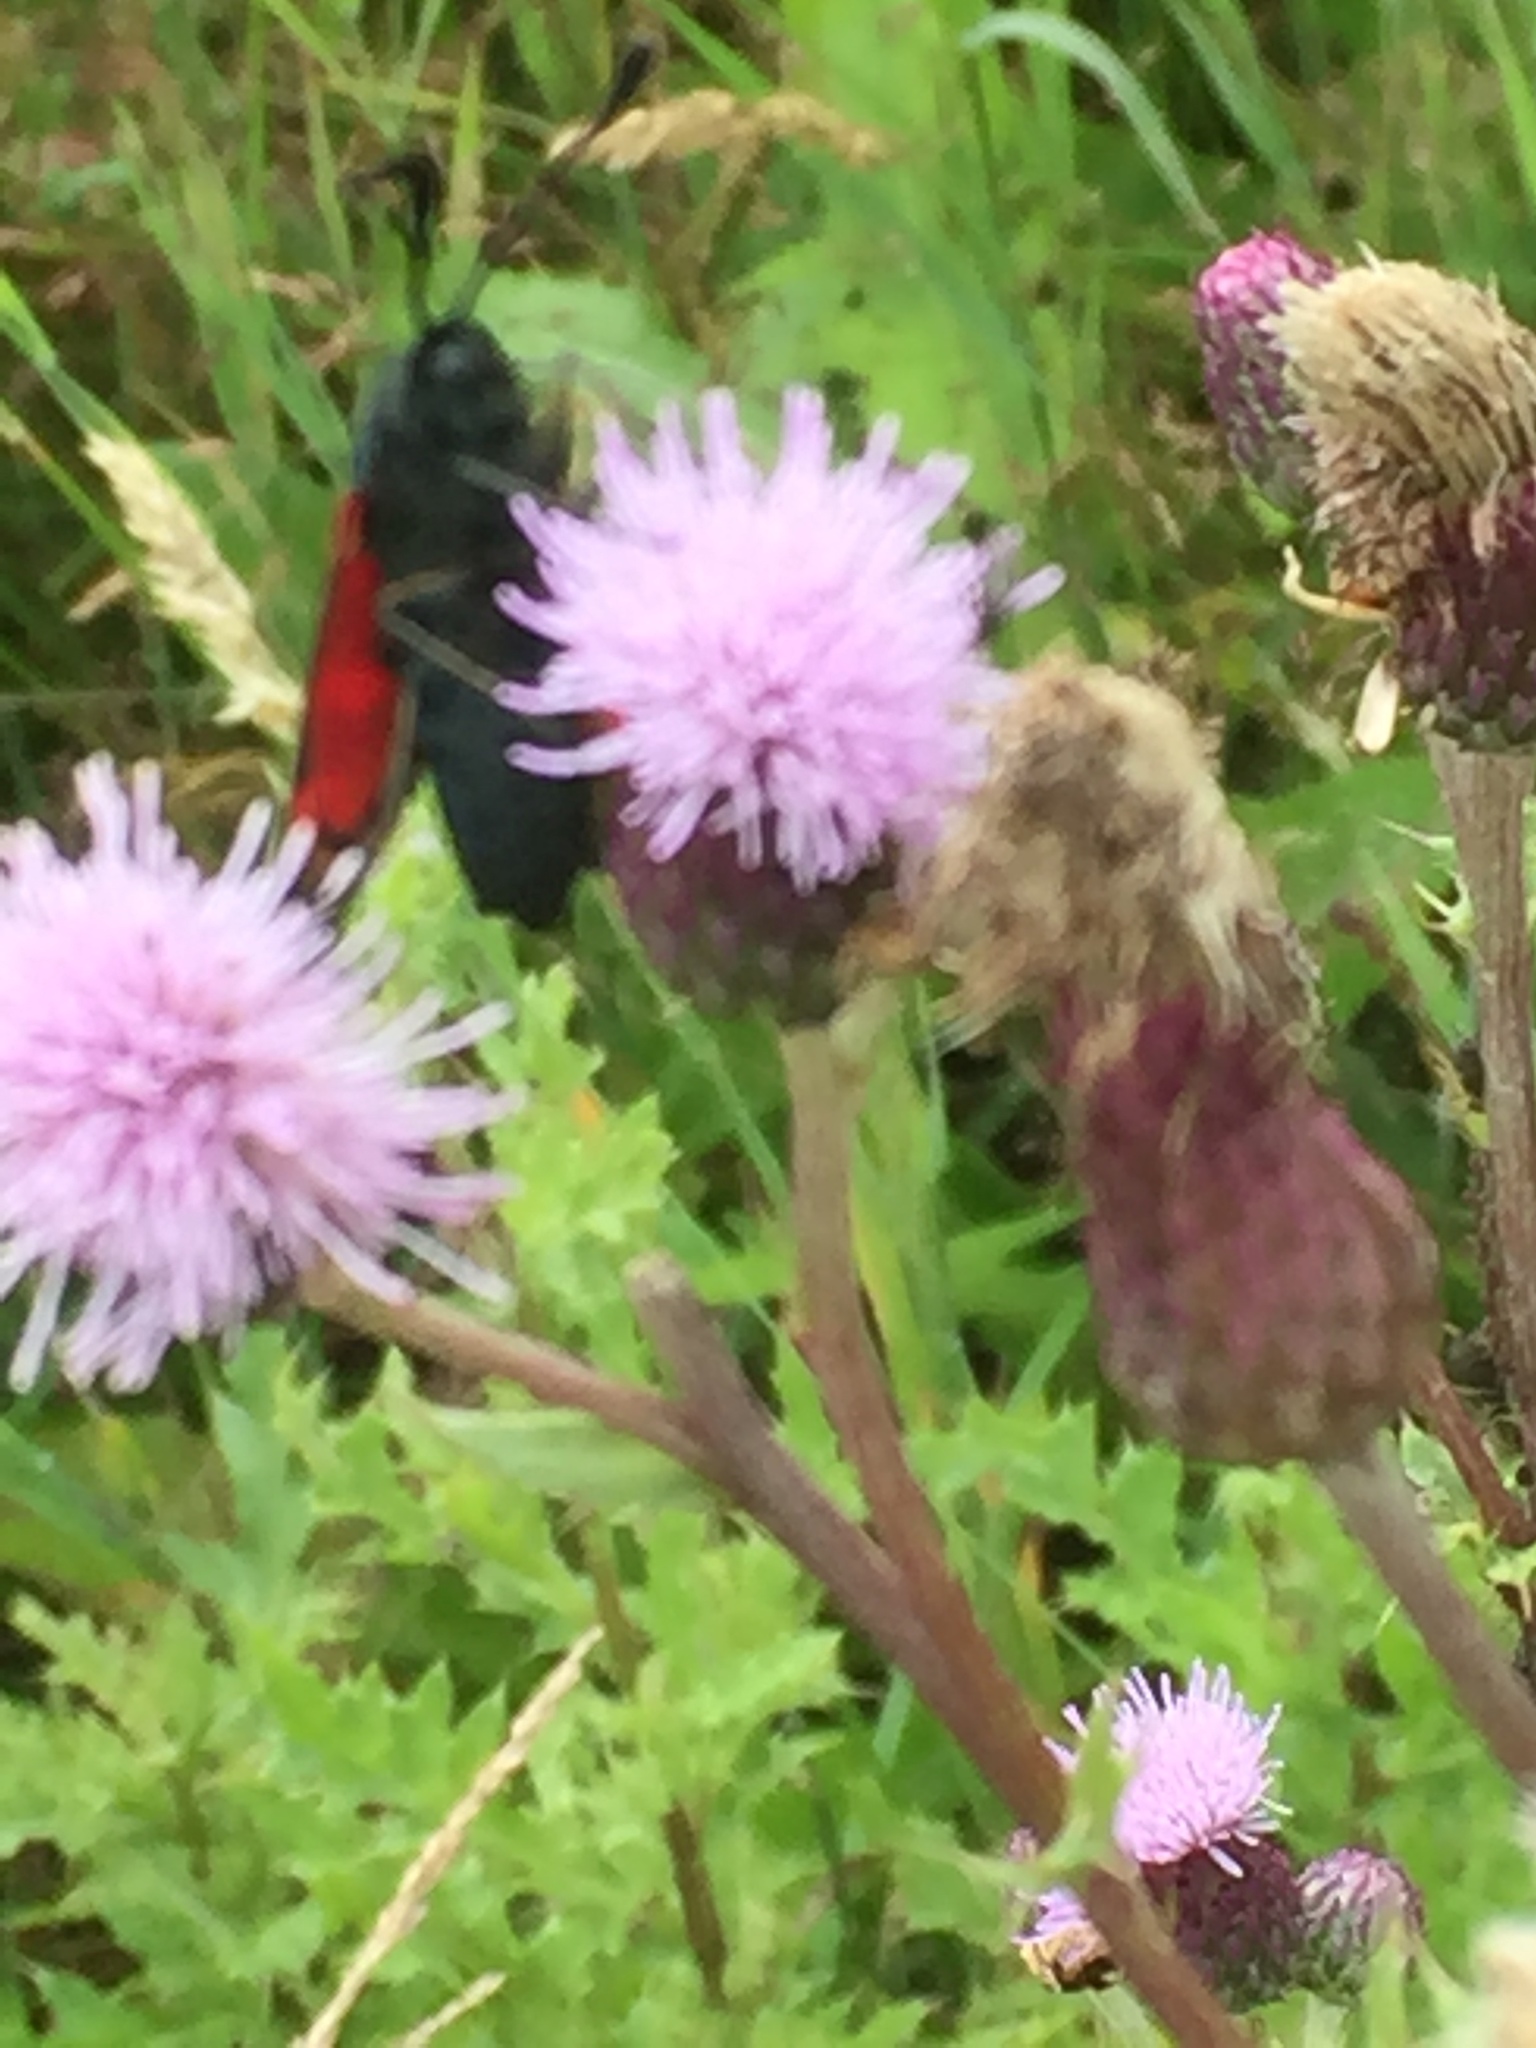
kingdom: Plantae
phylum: Tracheophyta
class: Magnoliopsida
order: Asterales
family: Asteraceae
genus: Cirsium
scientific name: Cirsium arvense
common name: Creeping thistle
